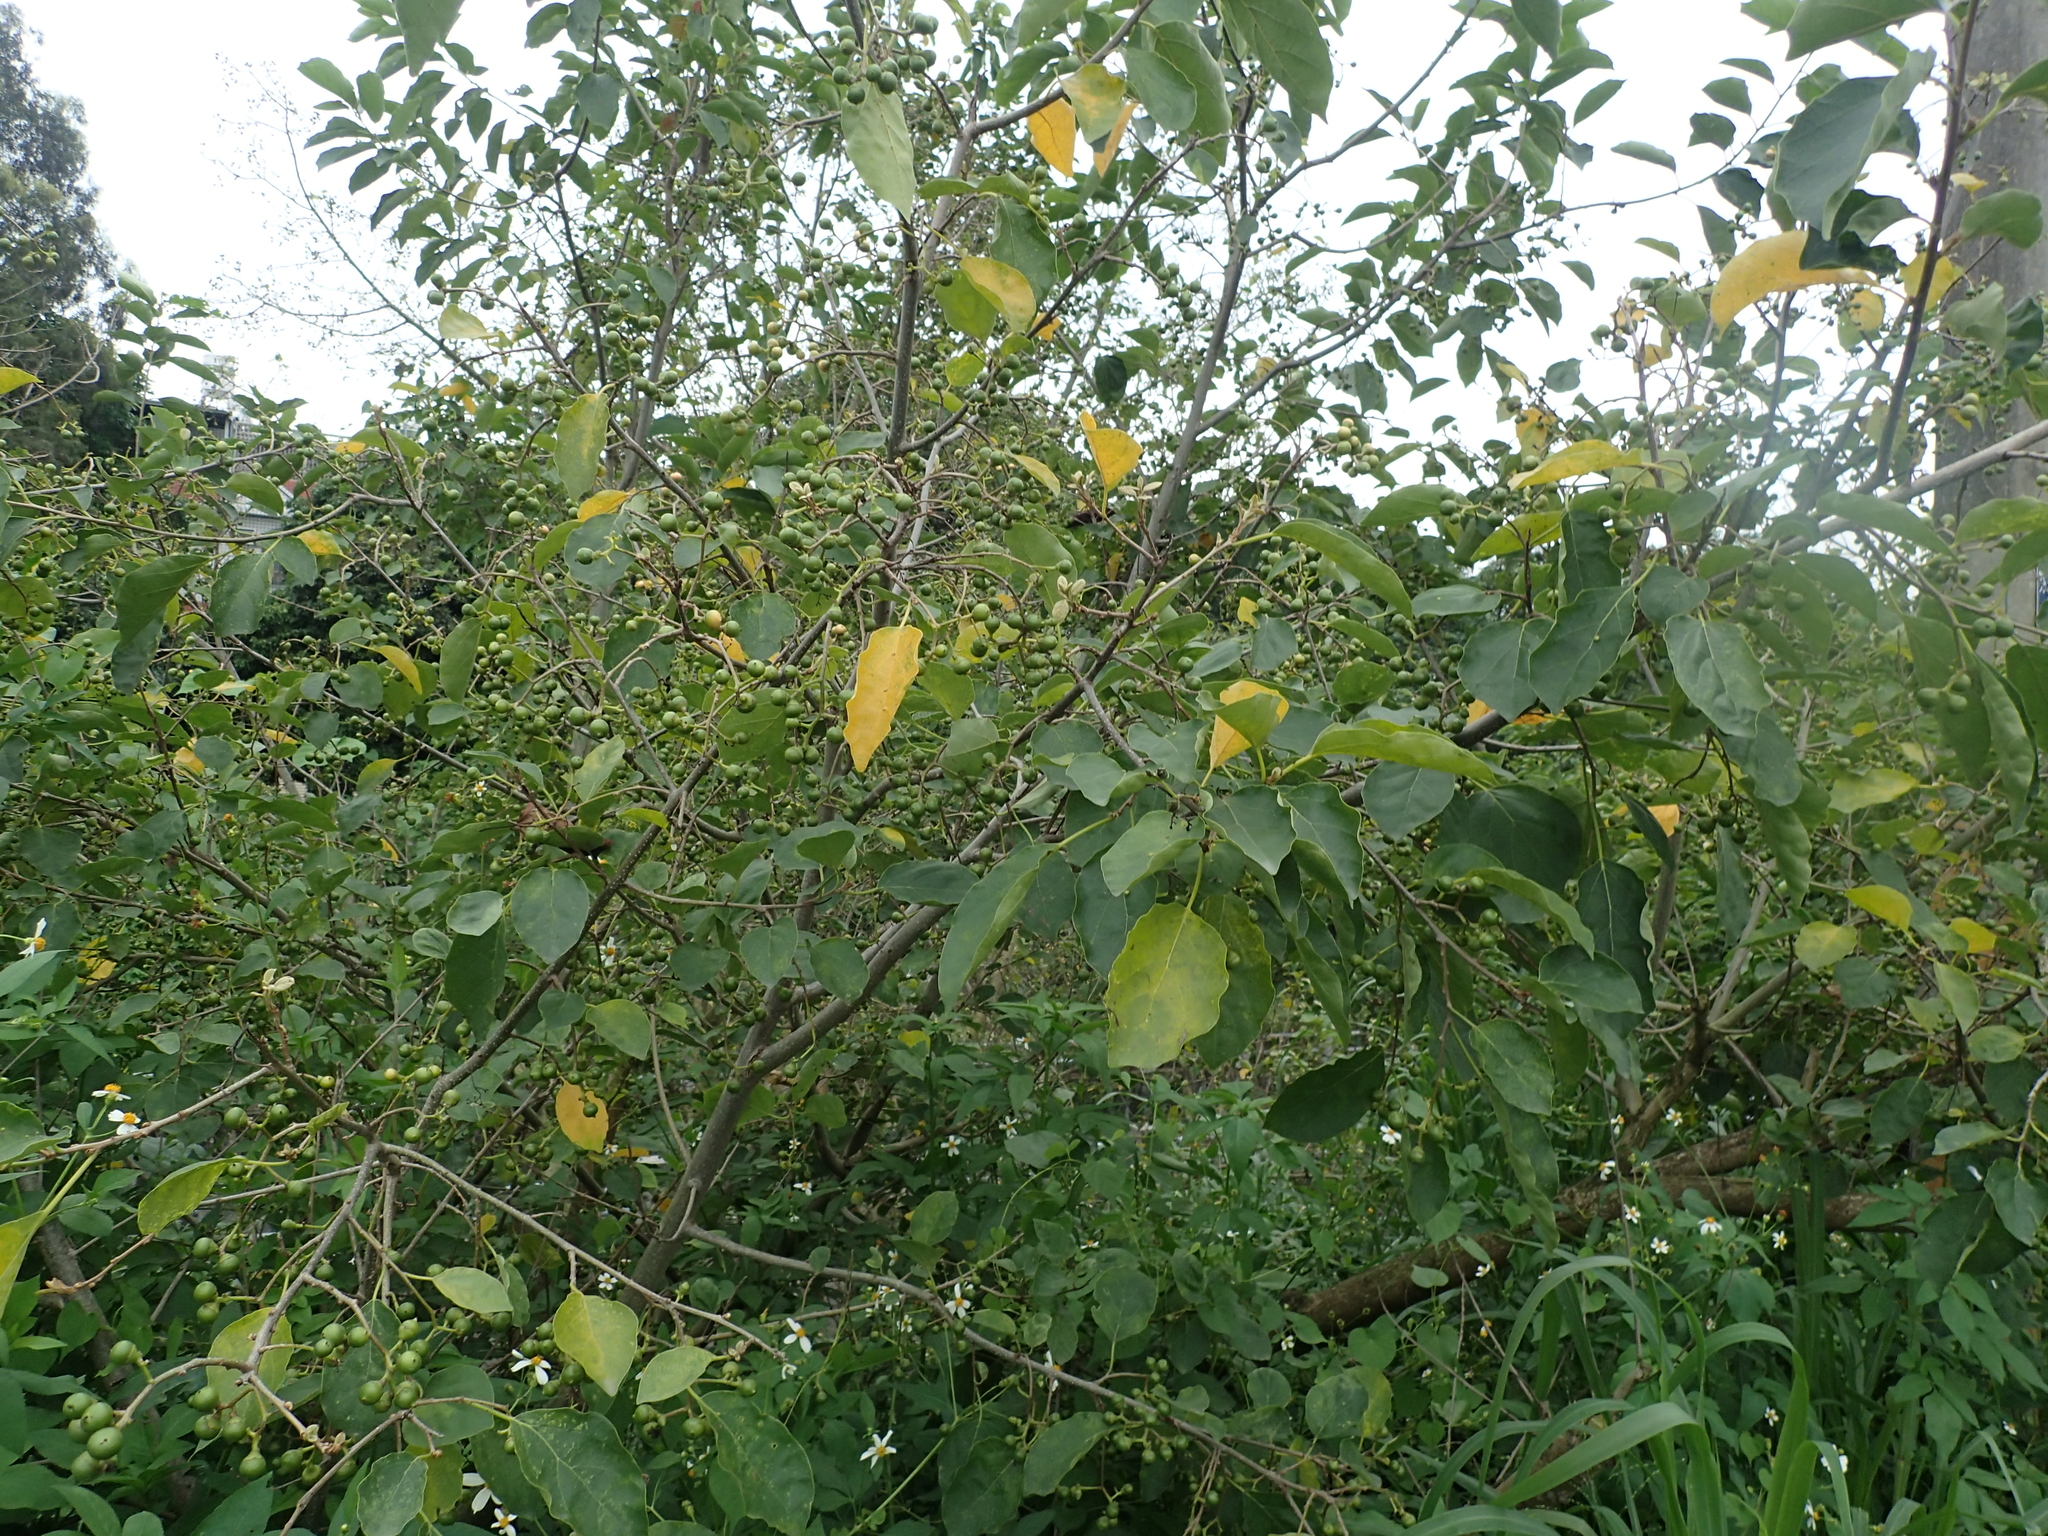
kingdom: Plantae
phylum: Tracheophyta
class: Magnoliopsida
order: Boraginales
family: Cordiaceae
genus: Cordia
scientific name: Cordia dichotoma
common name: Fragrant manjack
